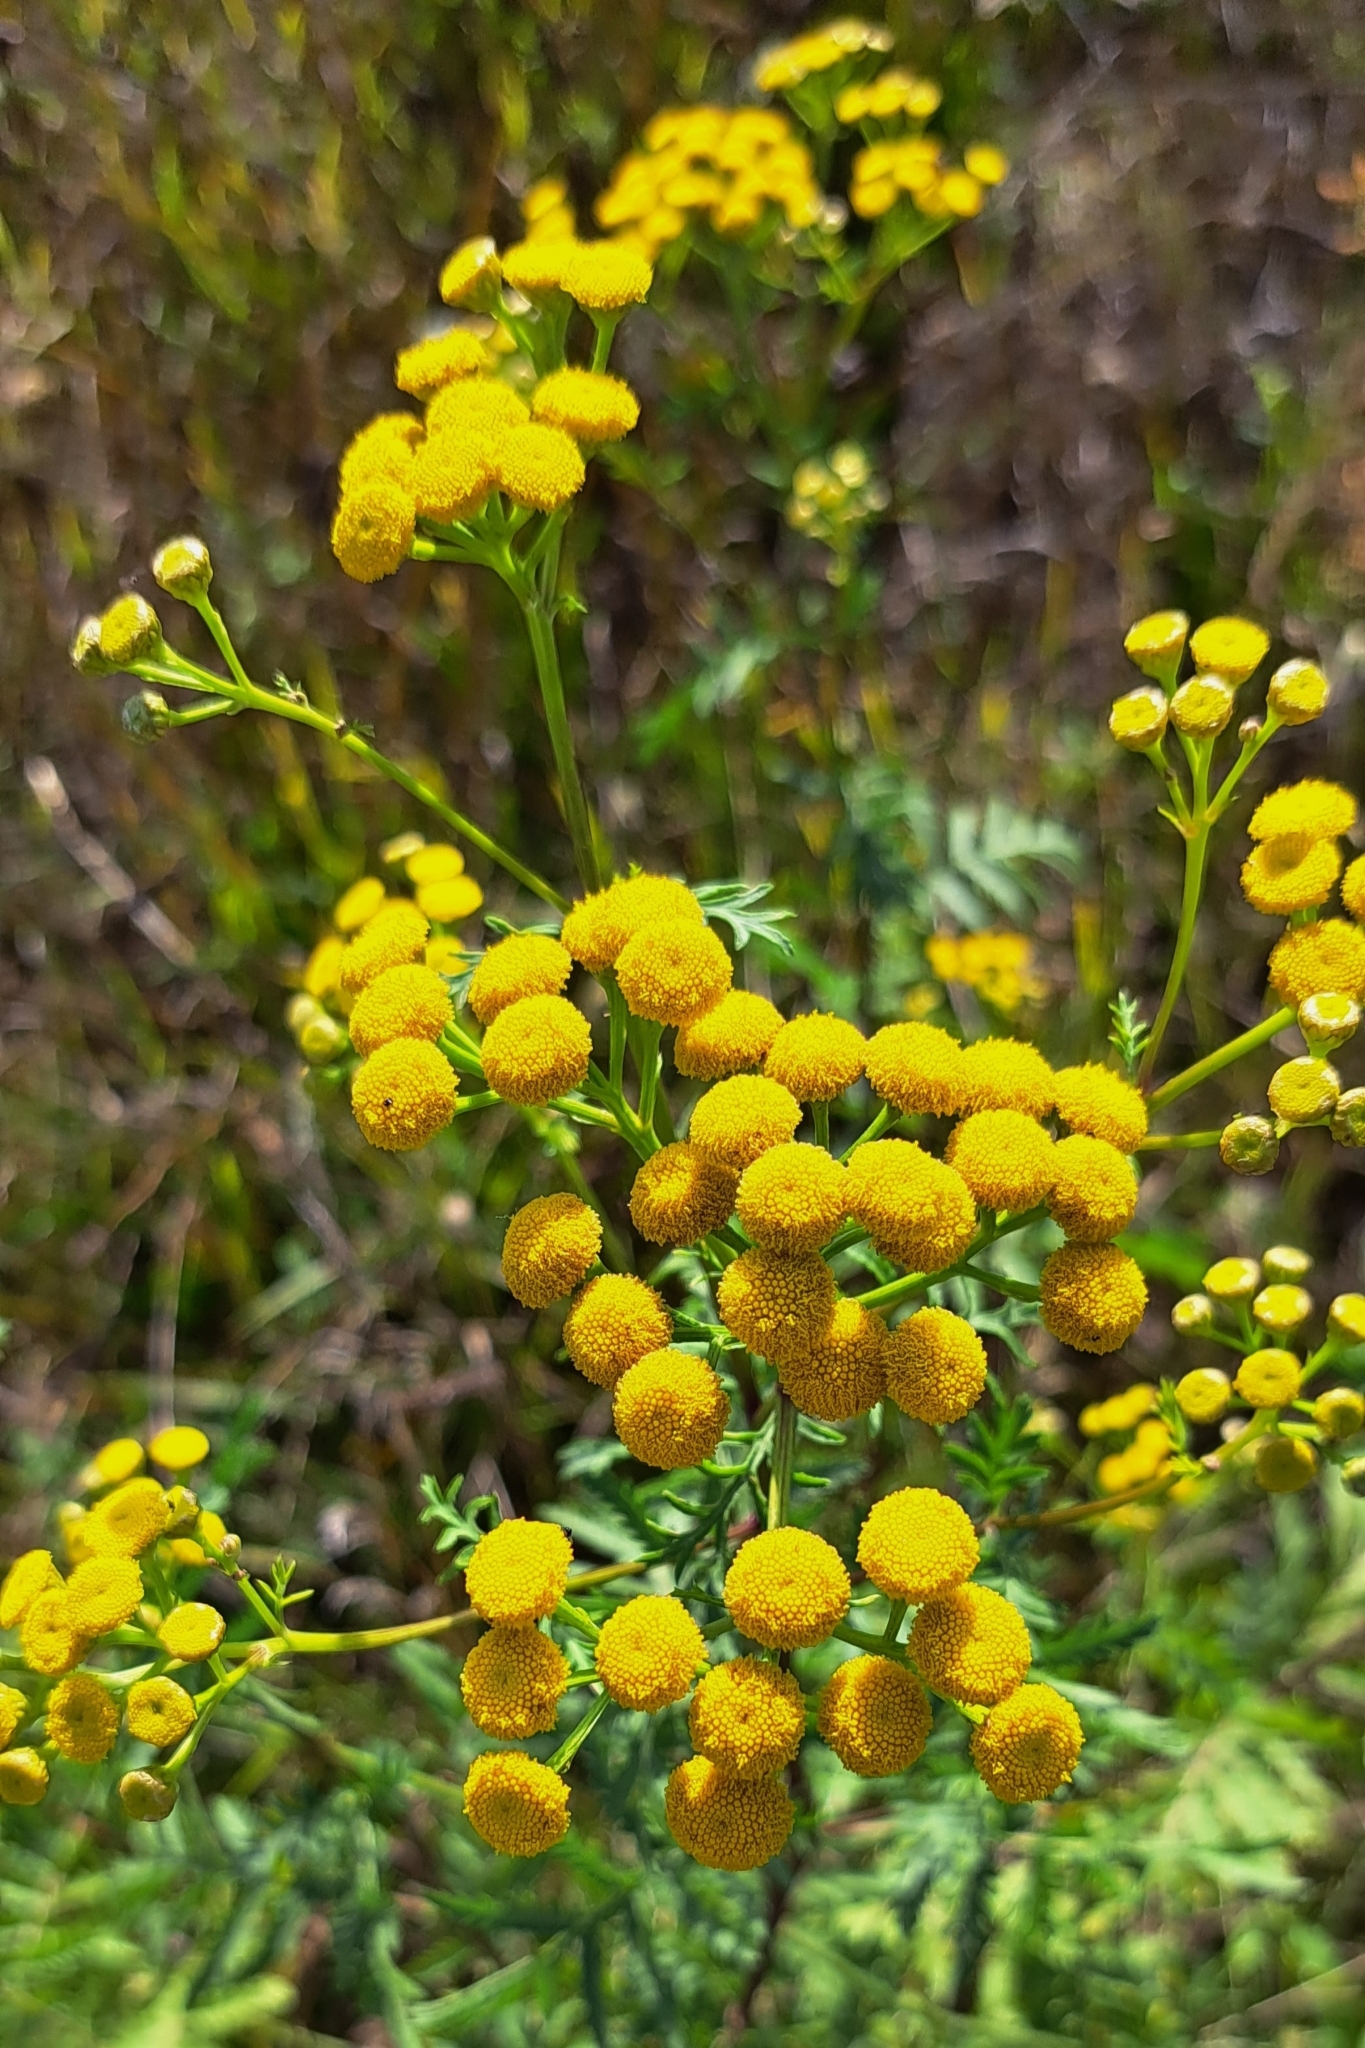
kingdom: Plantae
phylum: Tracheophyta
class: Magnoliopsida
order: Asterales
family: Asteraceae
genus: Tanacetum
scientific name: Tanacetum vulgare
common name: Common tansy
